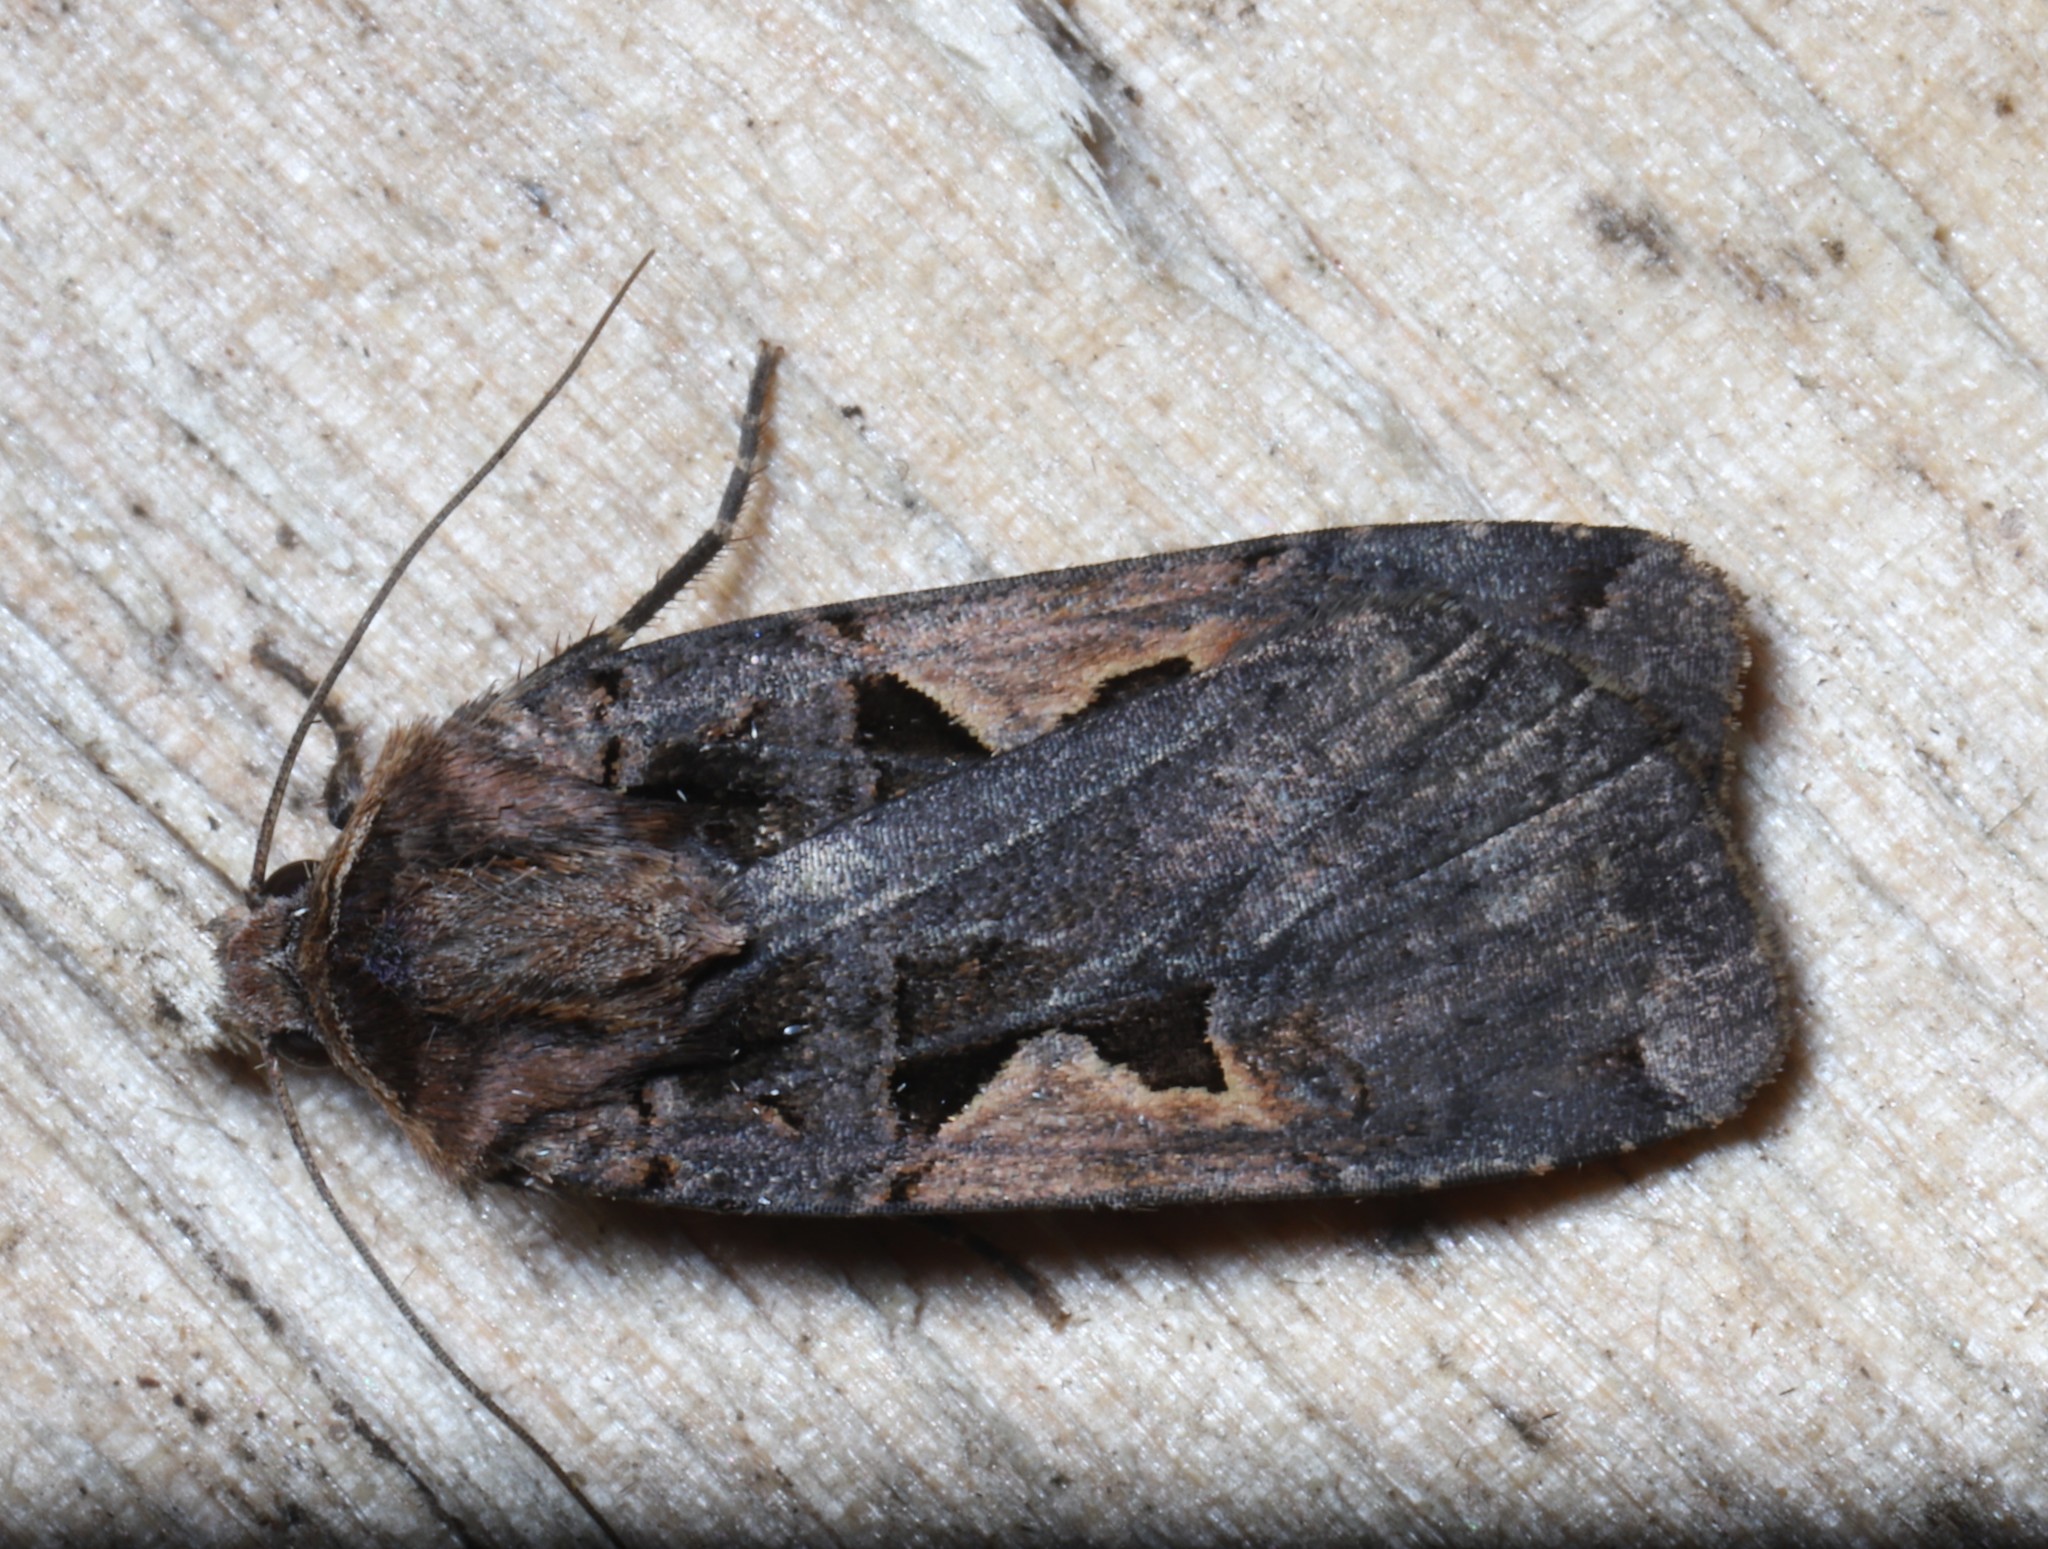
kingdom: Animalia
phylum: Arthropoda
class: Insecta
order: Lepidoptera
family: Noctuidae
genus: Xestia
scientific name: Xestia
